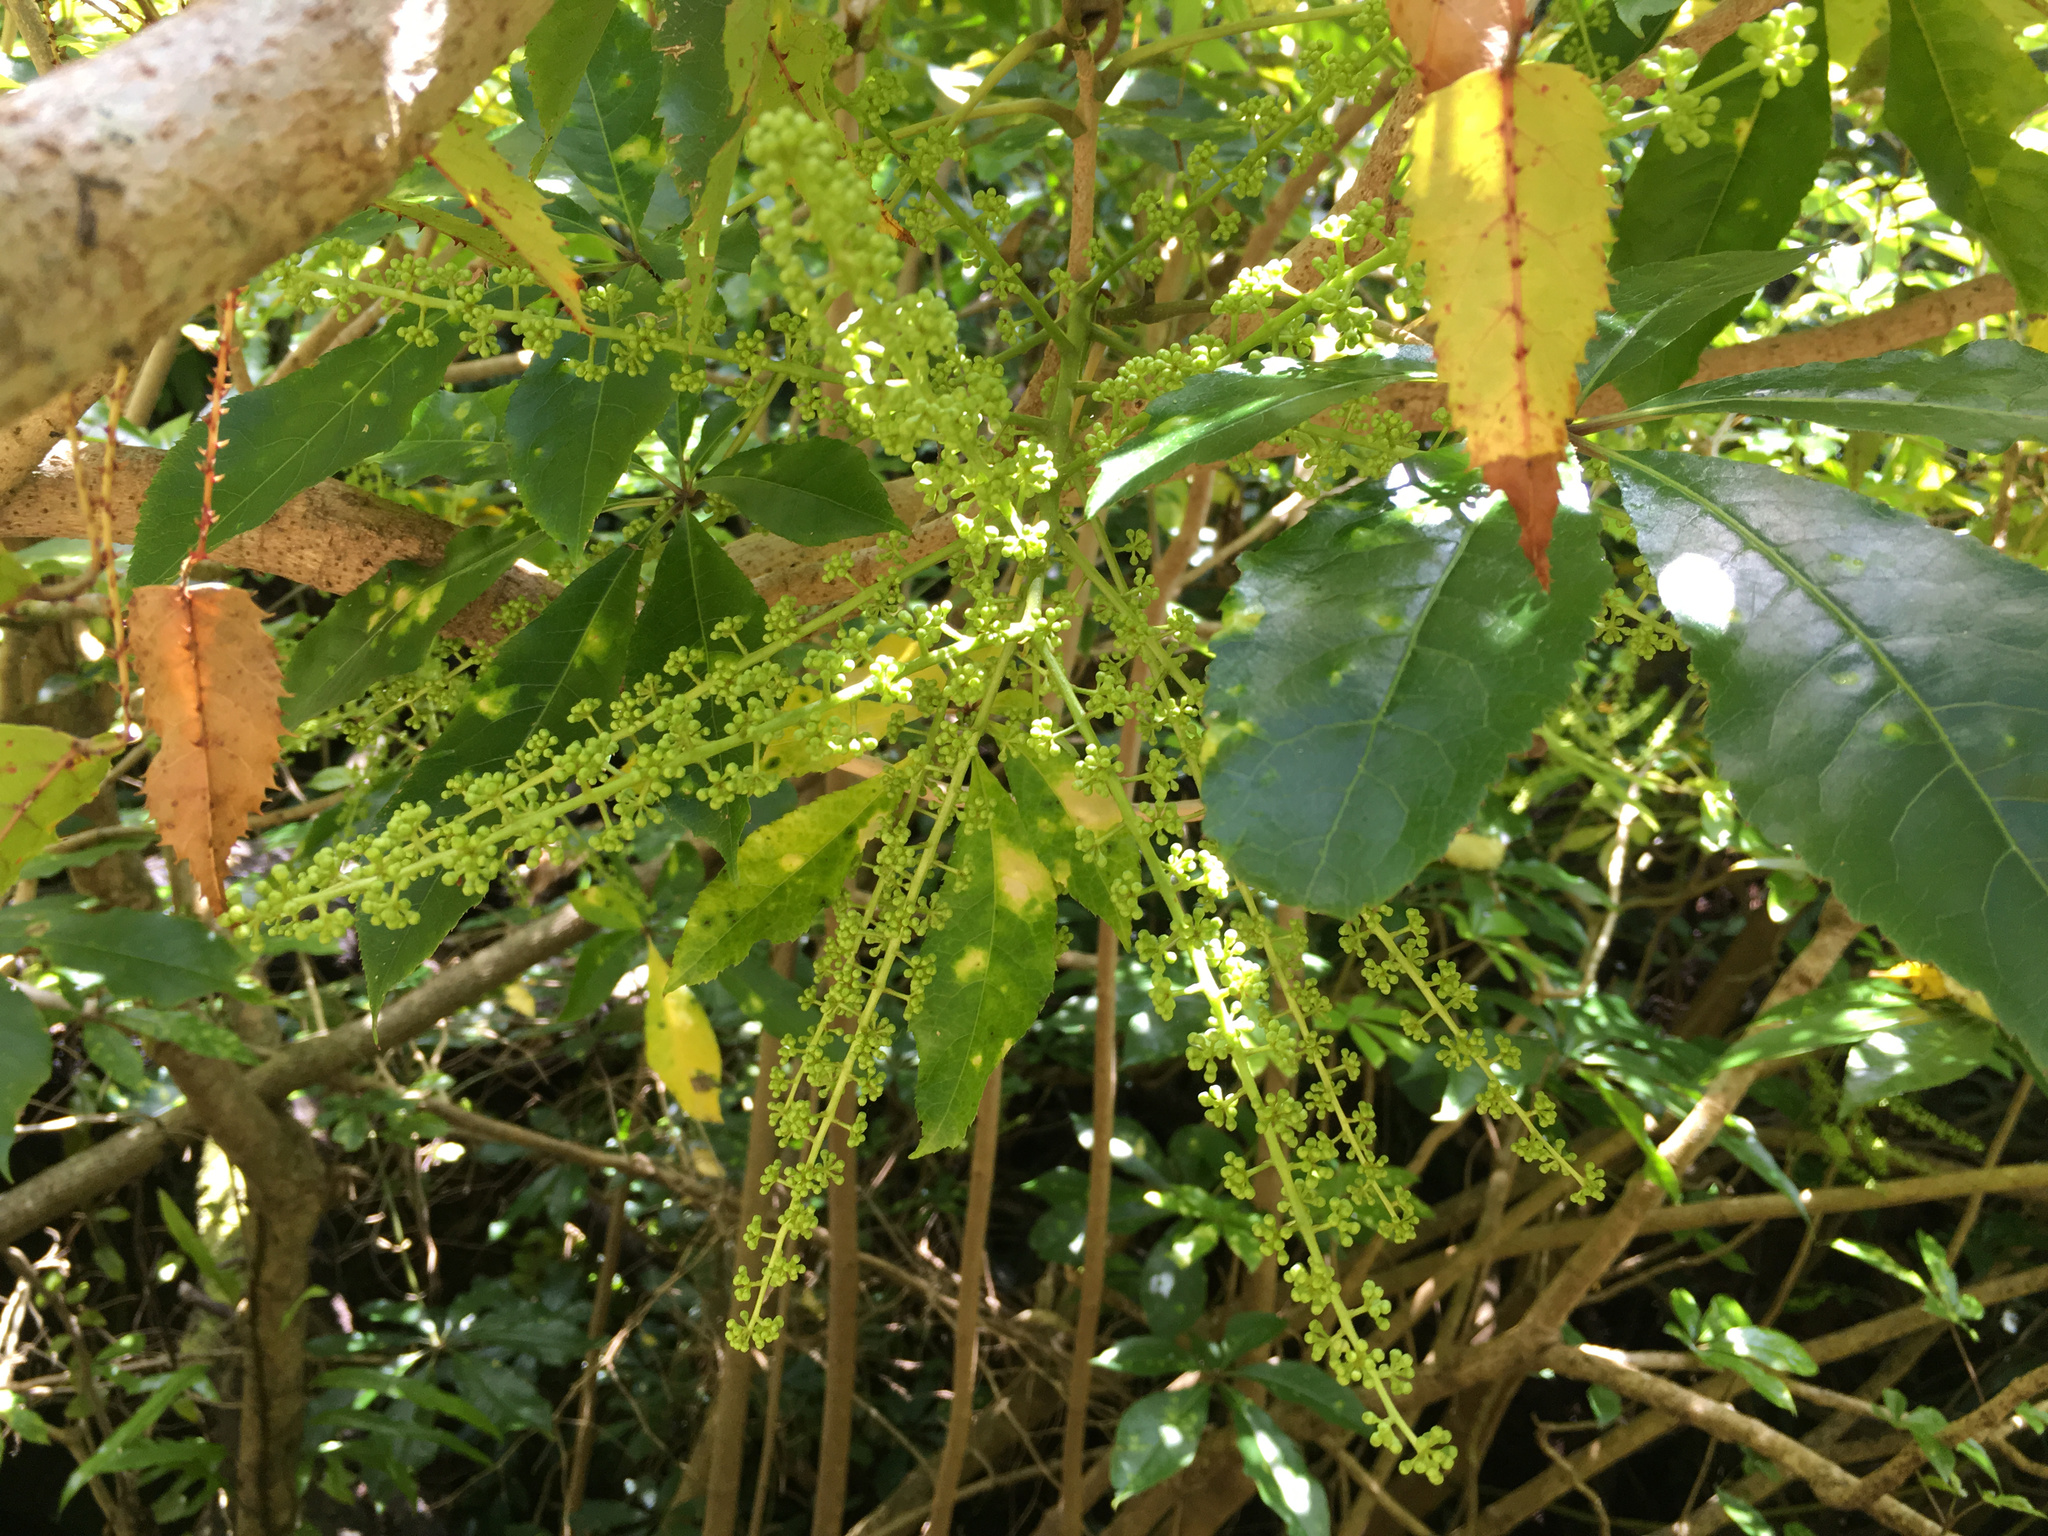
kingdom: Plantae
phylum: Tracheophyta
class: Magnoliopsida
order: Apiales
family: Araliaceae
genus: Schefflera
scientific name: Schefflera digitata
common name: Pate
